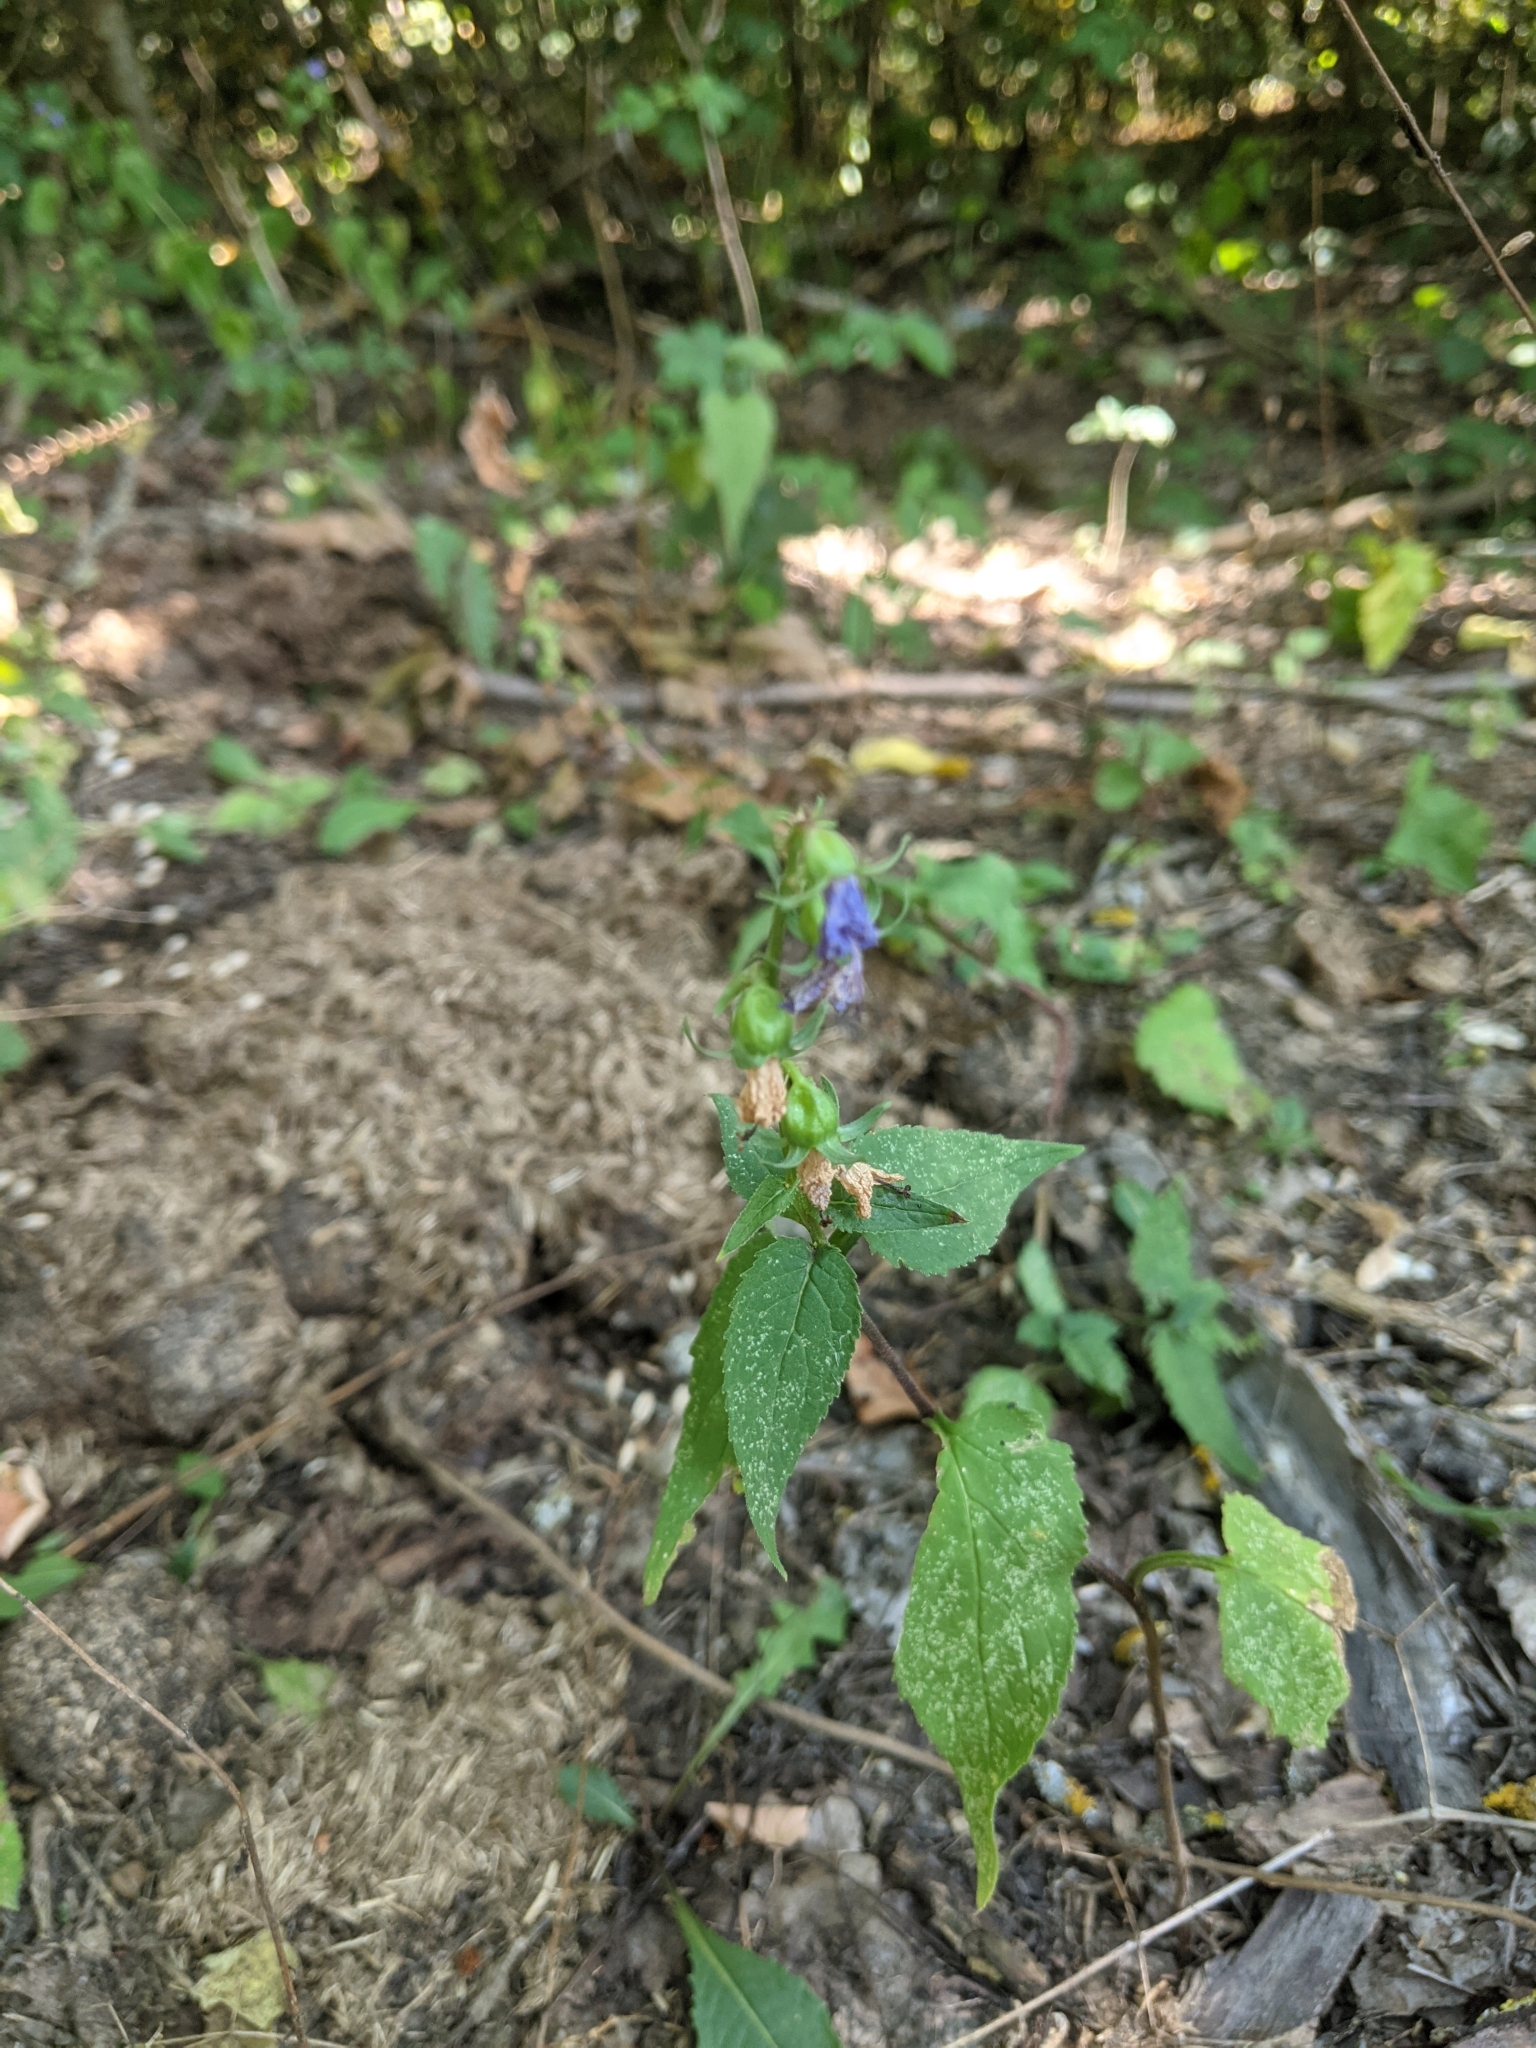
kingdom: Plantae
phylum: Tracheophyta
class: Magnoliopsida
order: Asterales
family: Campanulaceae
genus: Campanula
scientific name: Campanula trachelium
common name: Nettle-leaved bellflower
